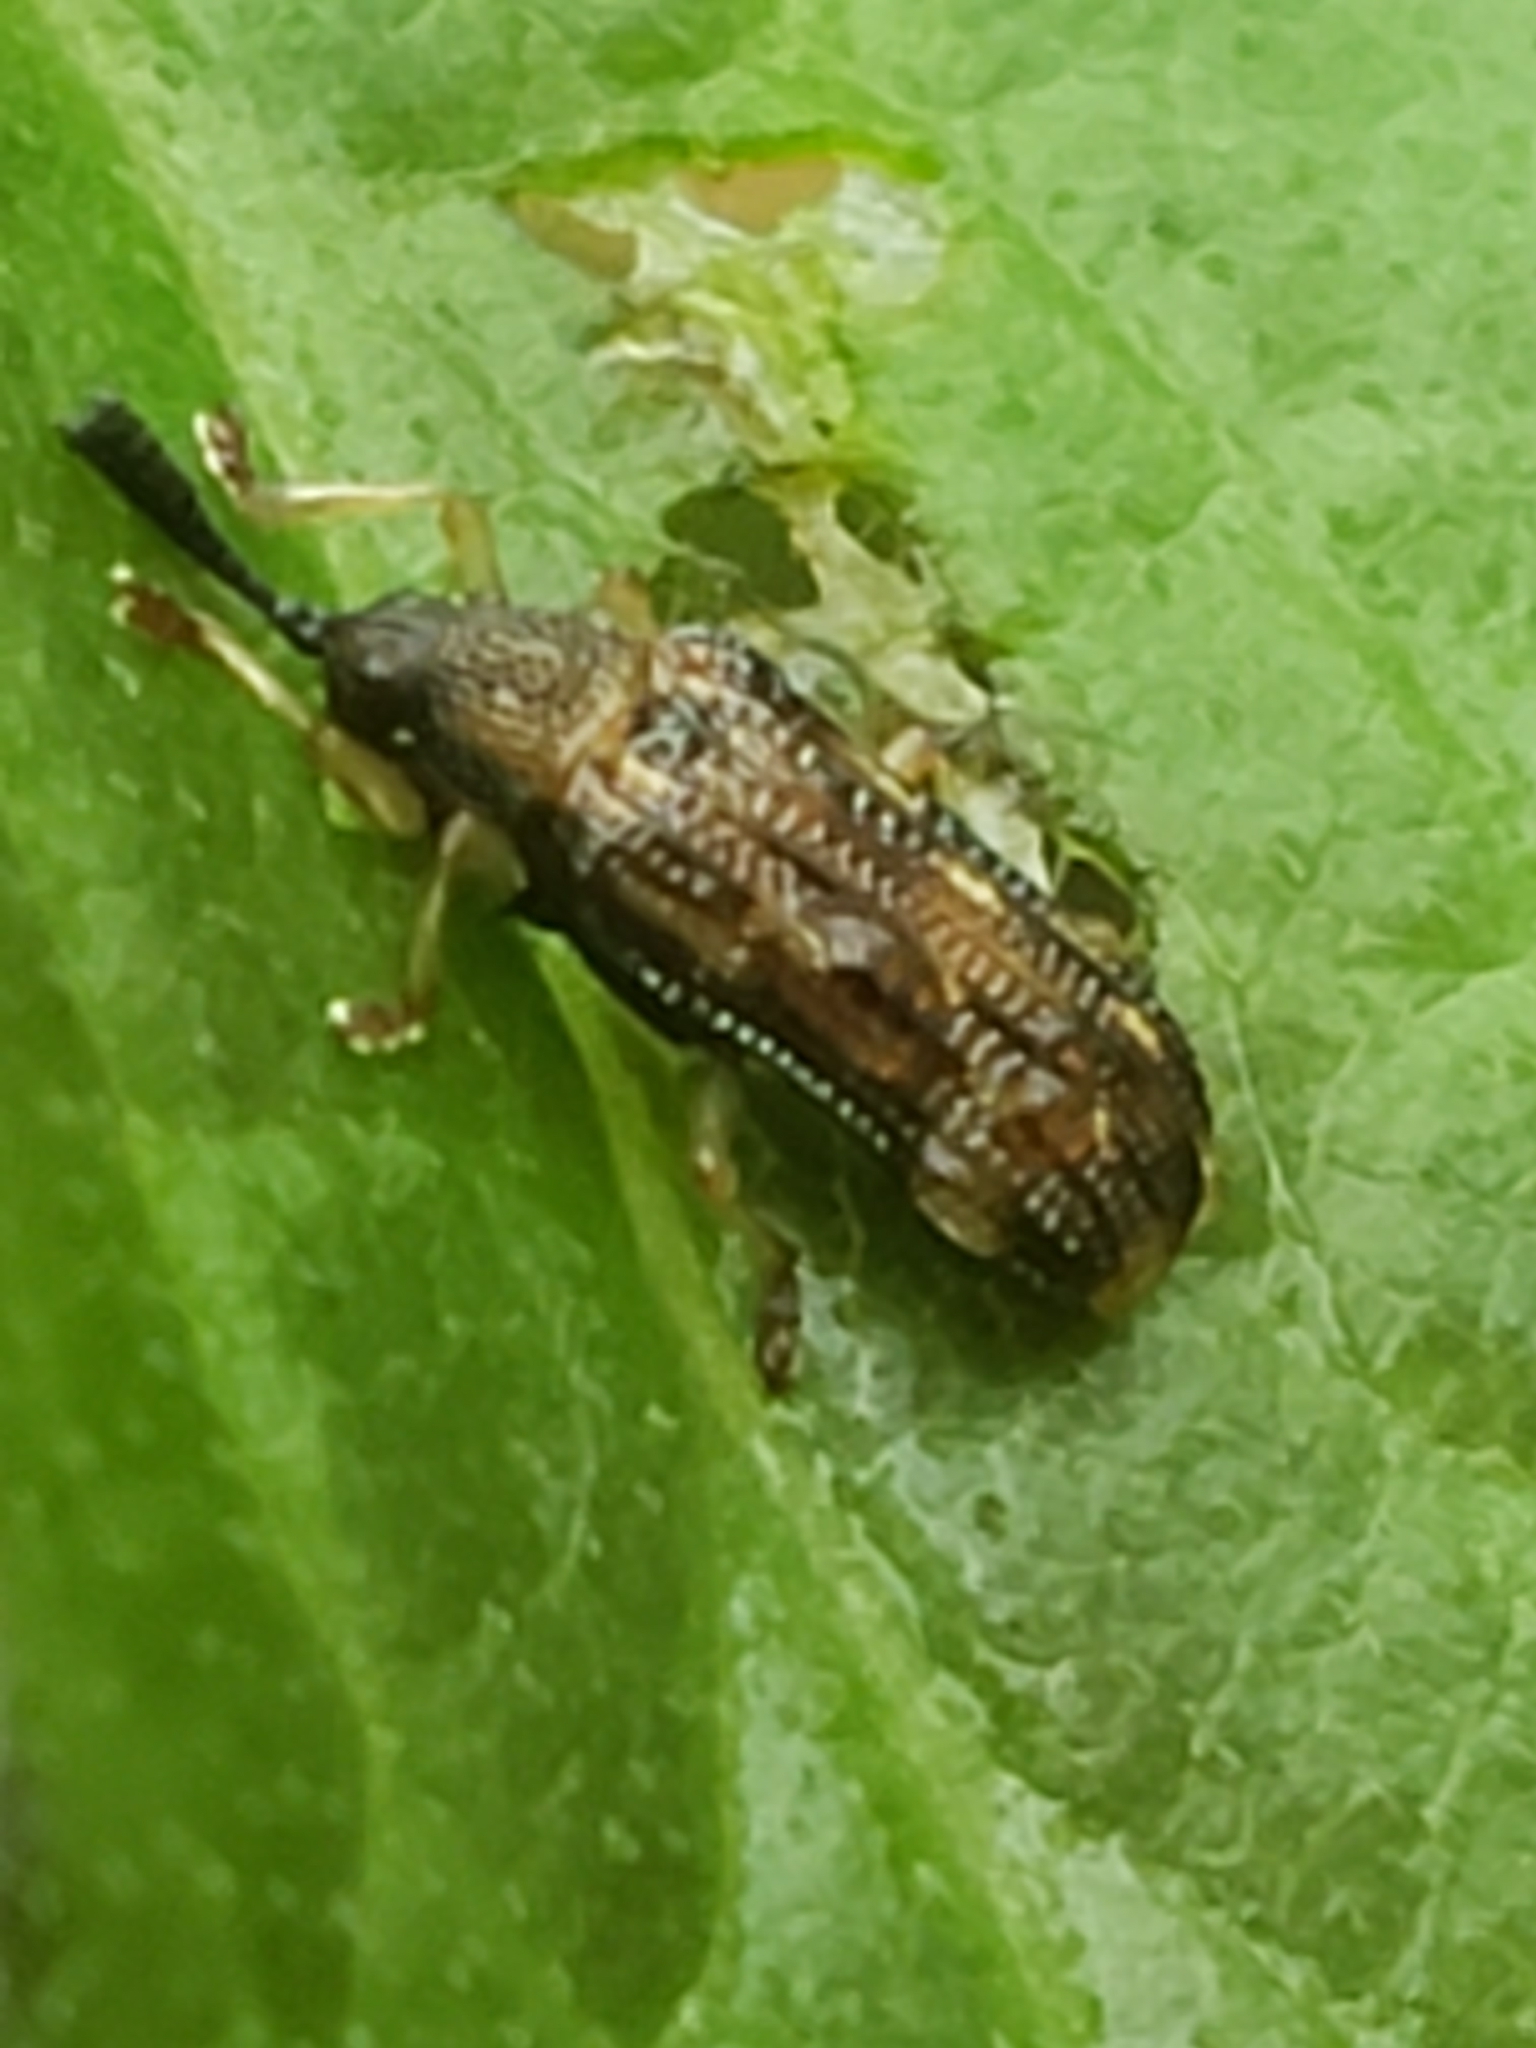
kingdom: Animalia
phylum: Arthropoda
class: Insecta
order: Coleoptera
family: Chrysomelidae
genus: Sumitrosis
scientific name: Sumitrosis inaequalis
